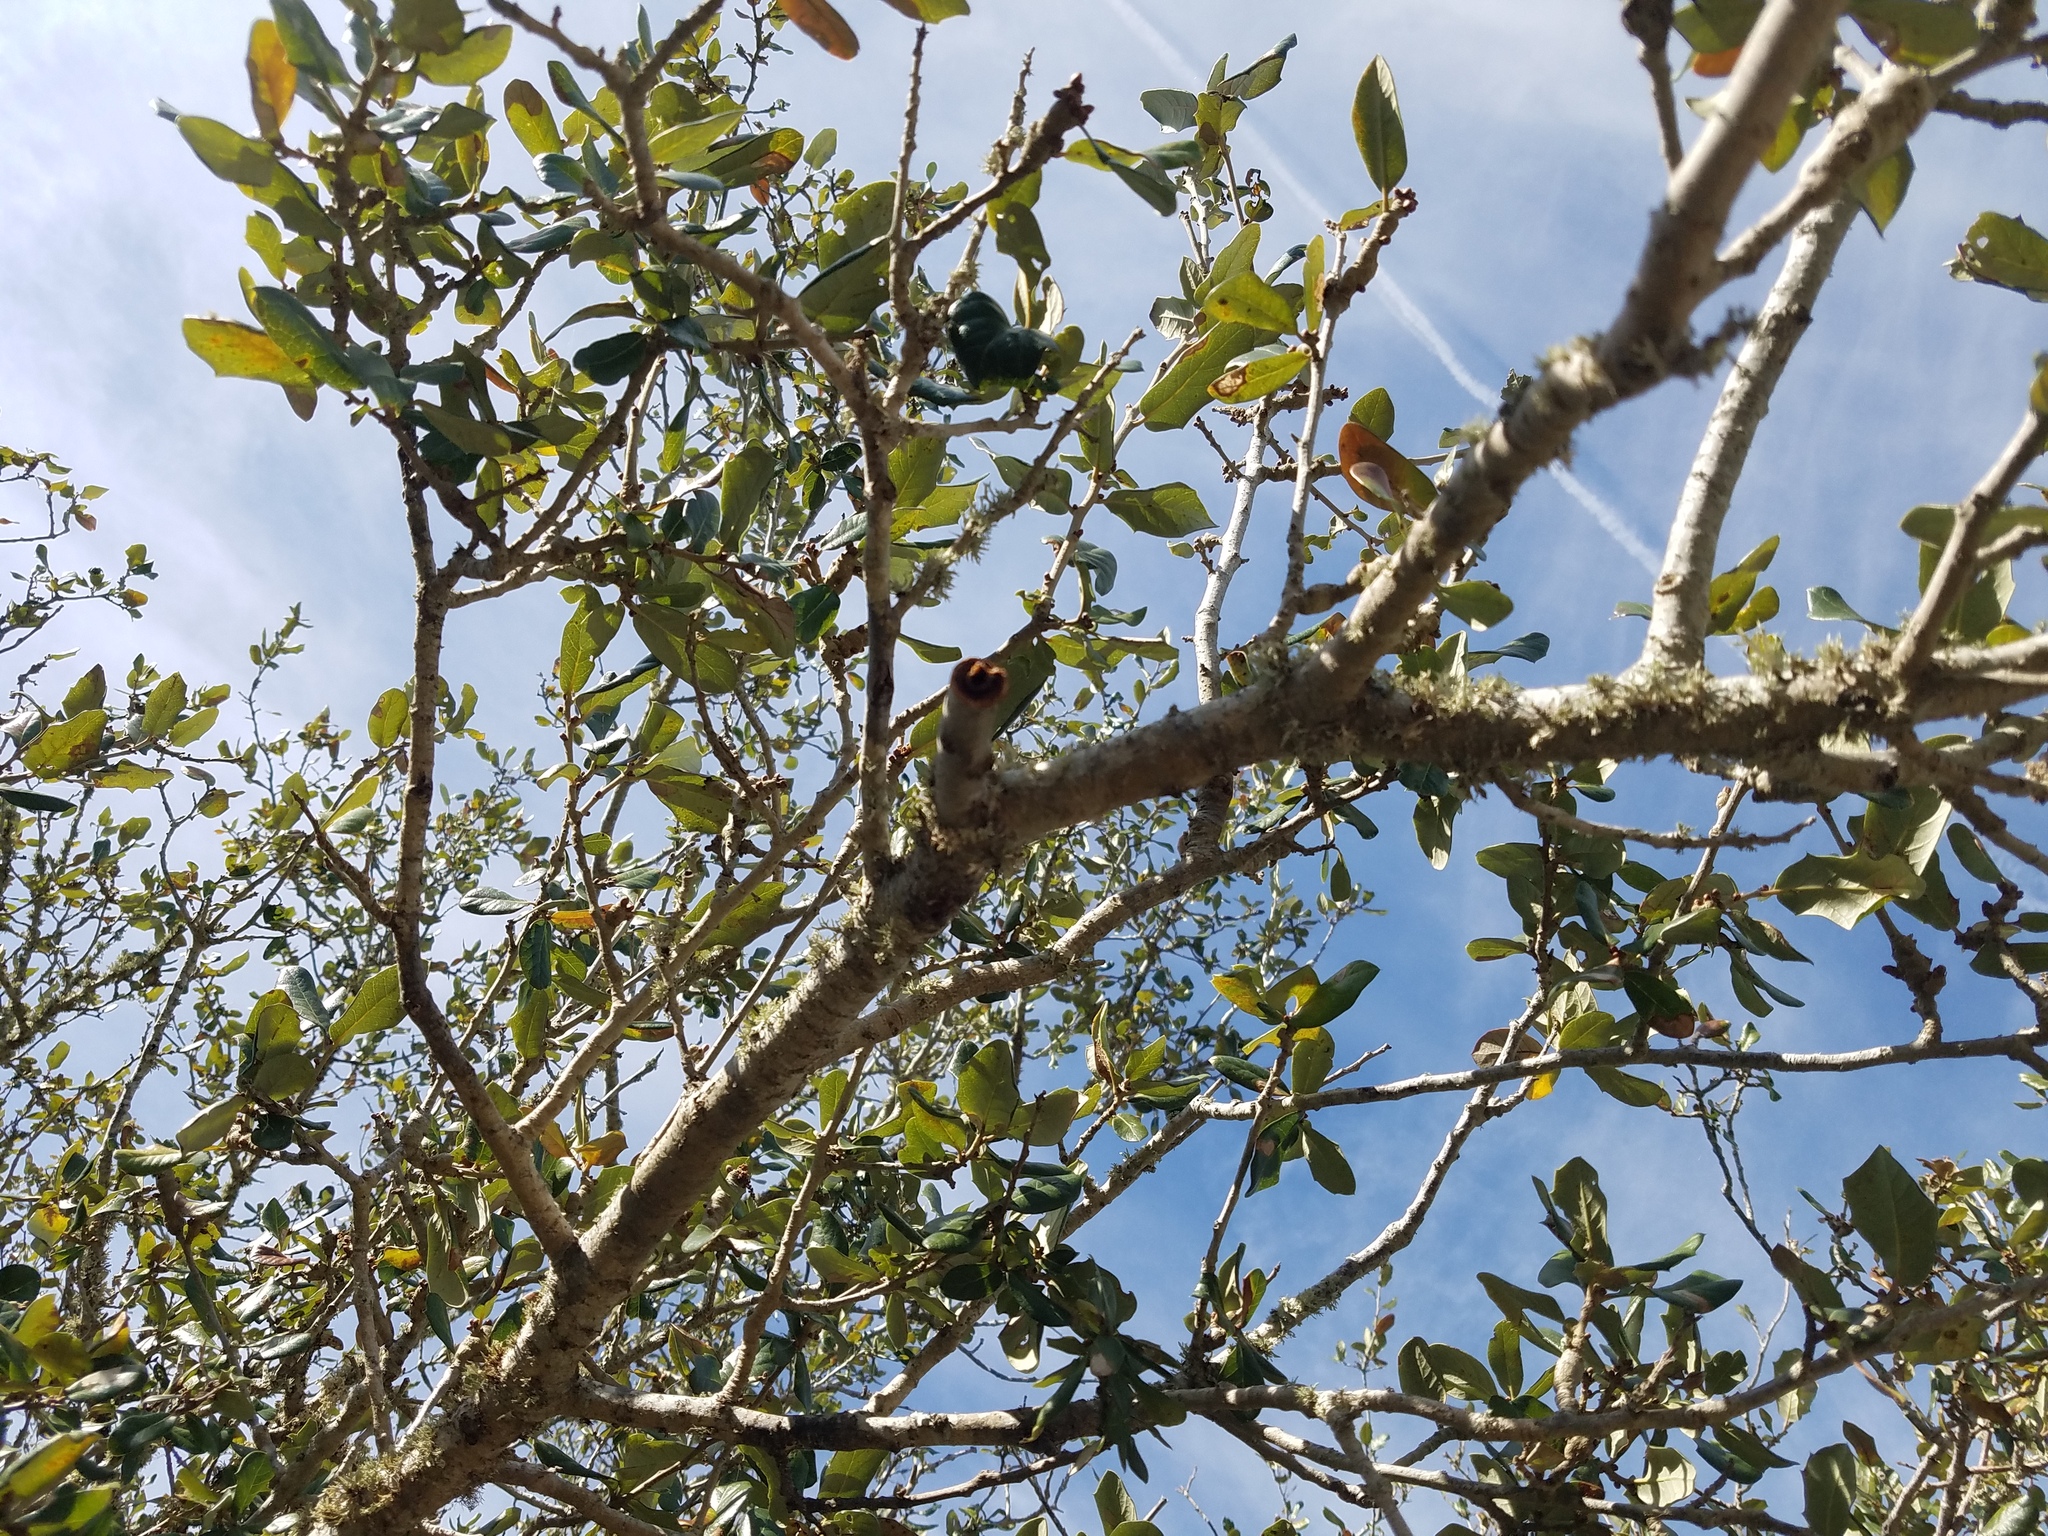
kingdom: Plantae
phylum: Tracheophyta
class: Magnoliopsida
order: Fagales
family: Fagaceae
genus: Quercus
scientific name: Quercus virginiana
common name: Southern live oak
